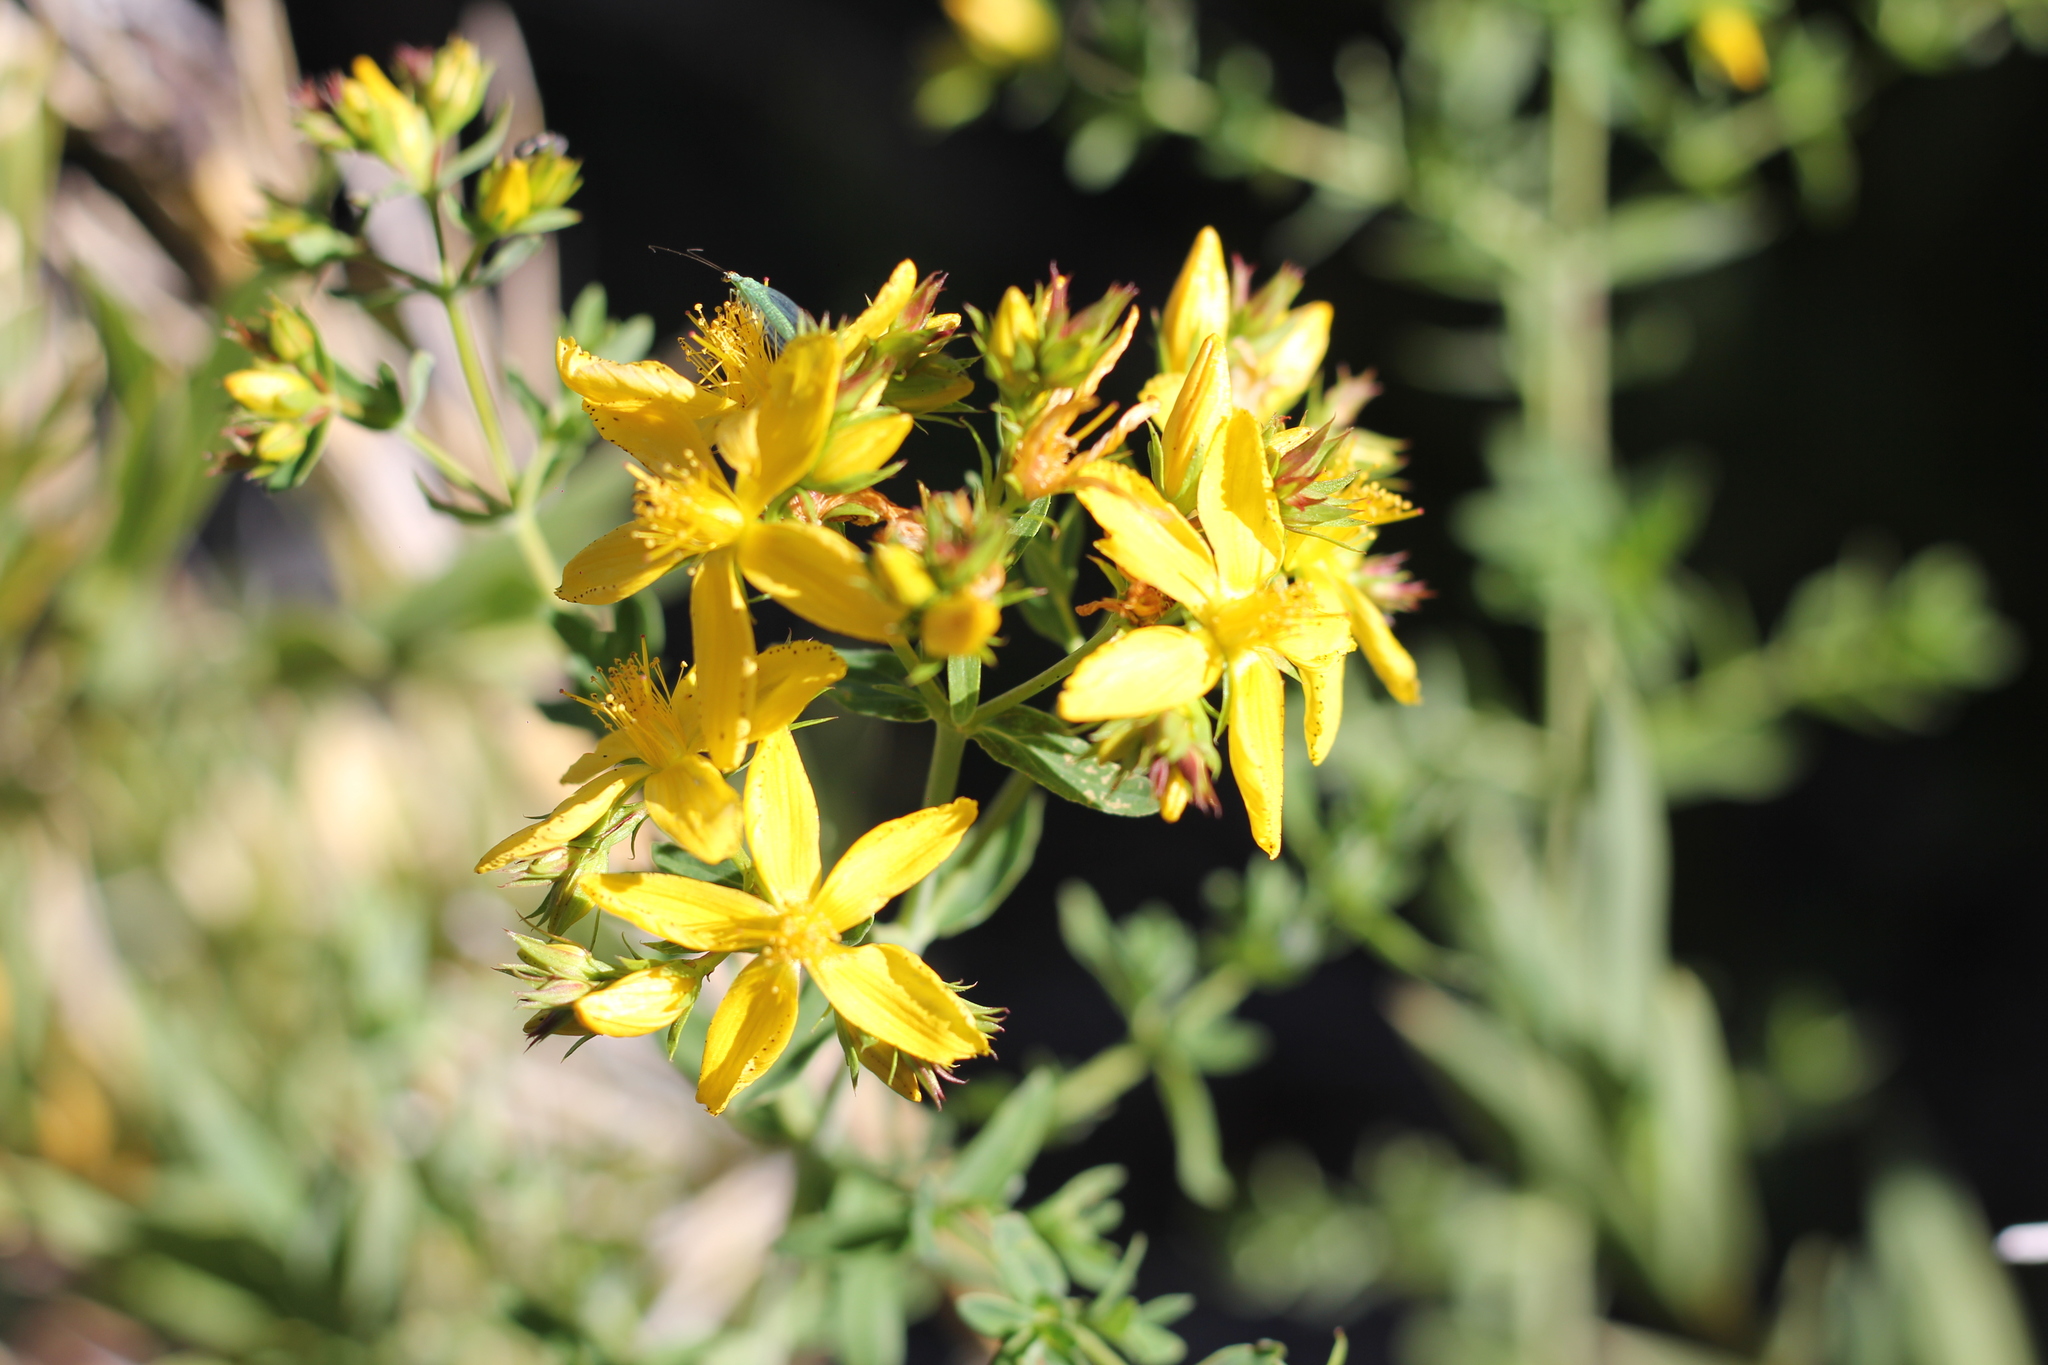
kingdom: Plantae
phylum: Tracheophyta
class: Magnoliopsida
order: Malpighiales
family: Hypericaceae
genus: Hypericum
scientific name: Hypericum perforatum
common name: Common st. johnswort
